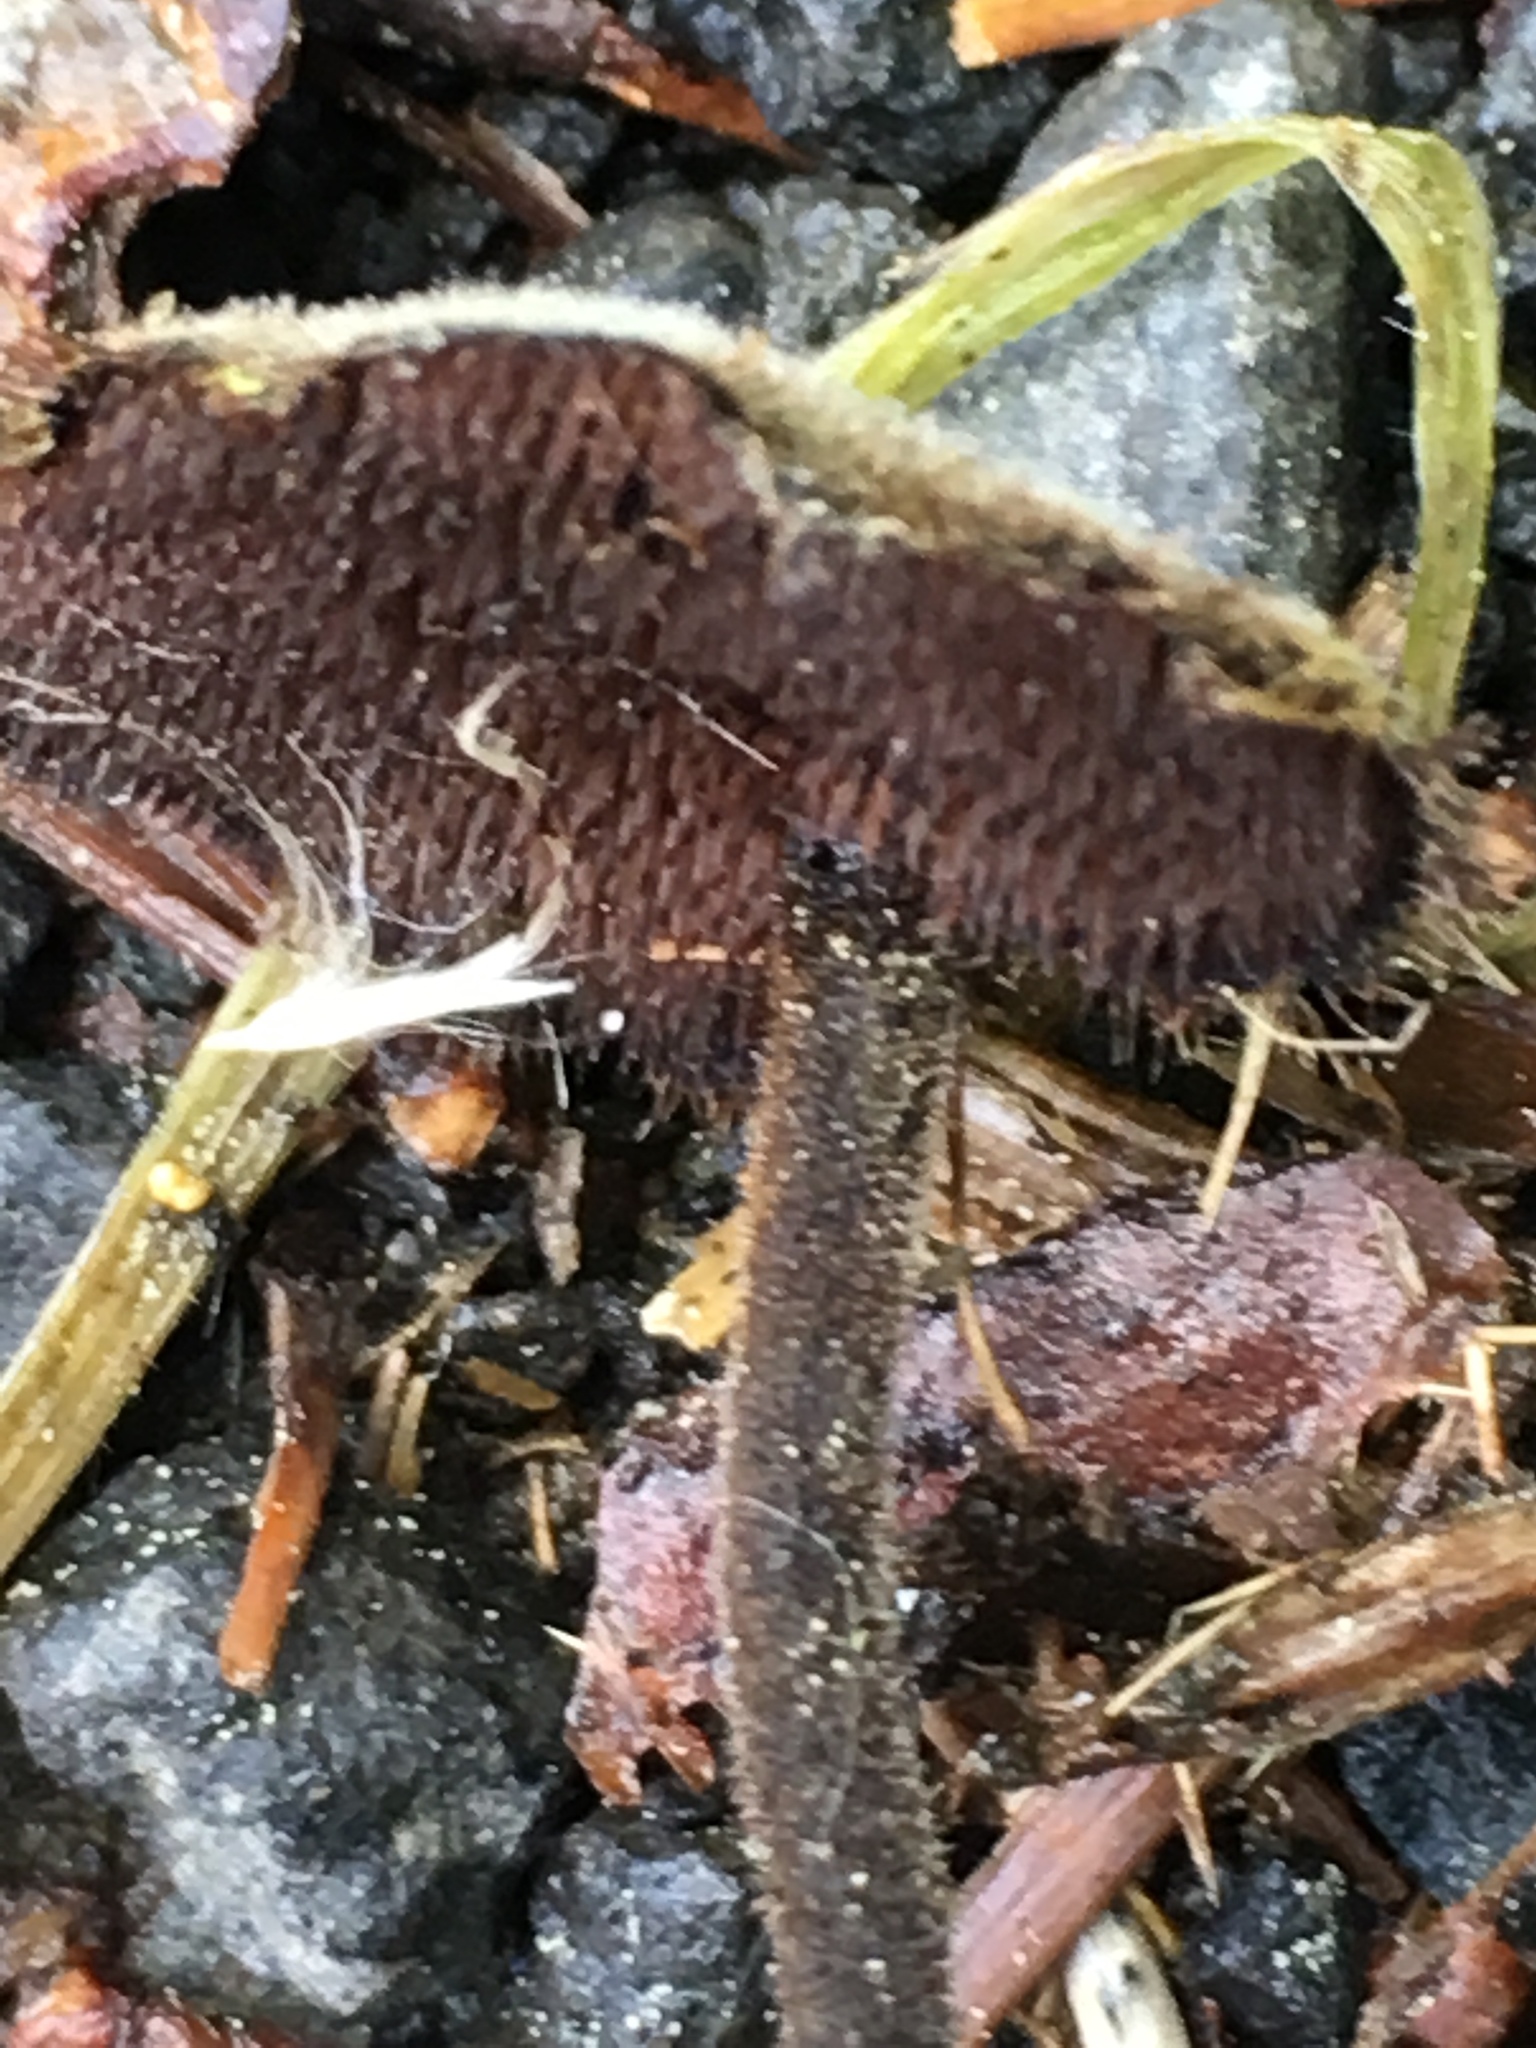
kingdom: Fungi
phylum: Basidiomycota
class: Agaricomycetes
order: Russulales
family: Auriscalpiaceae
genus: Auriscalpium
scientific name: Auriscalpium vulgare
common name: Earpick fungus
